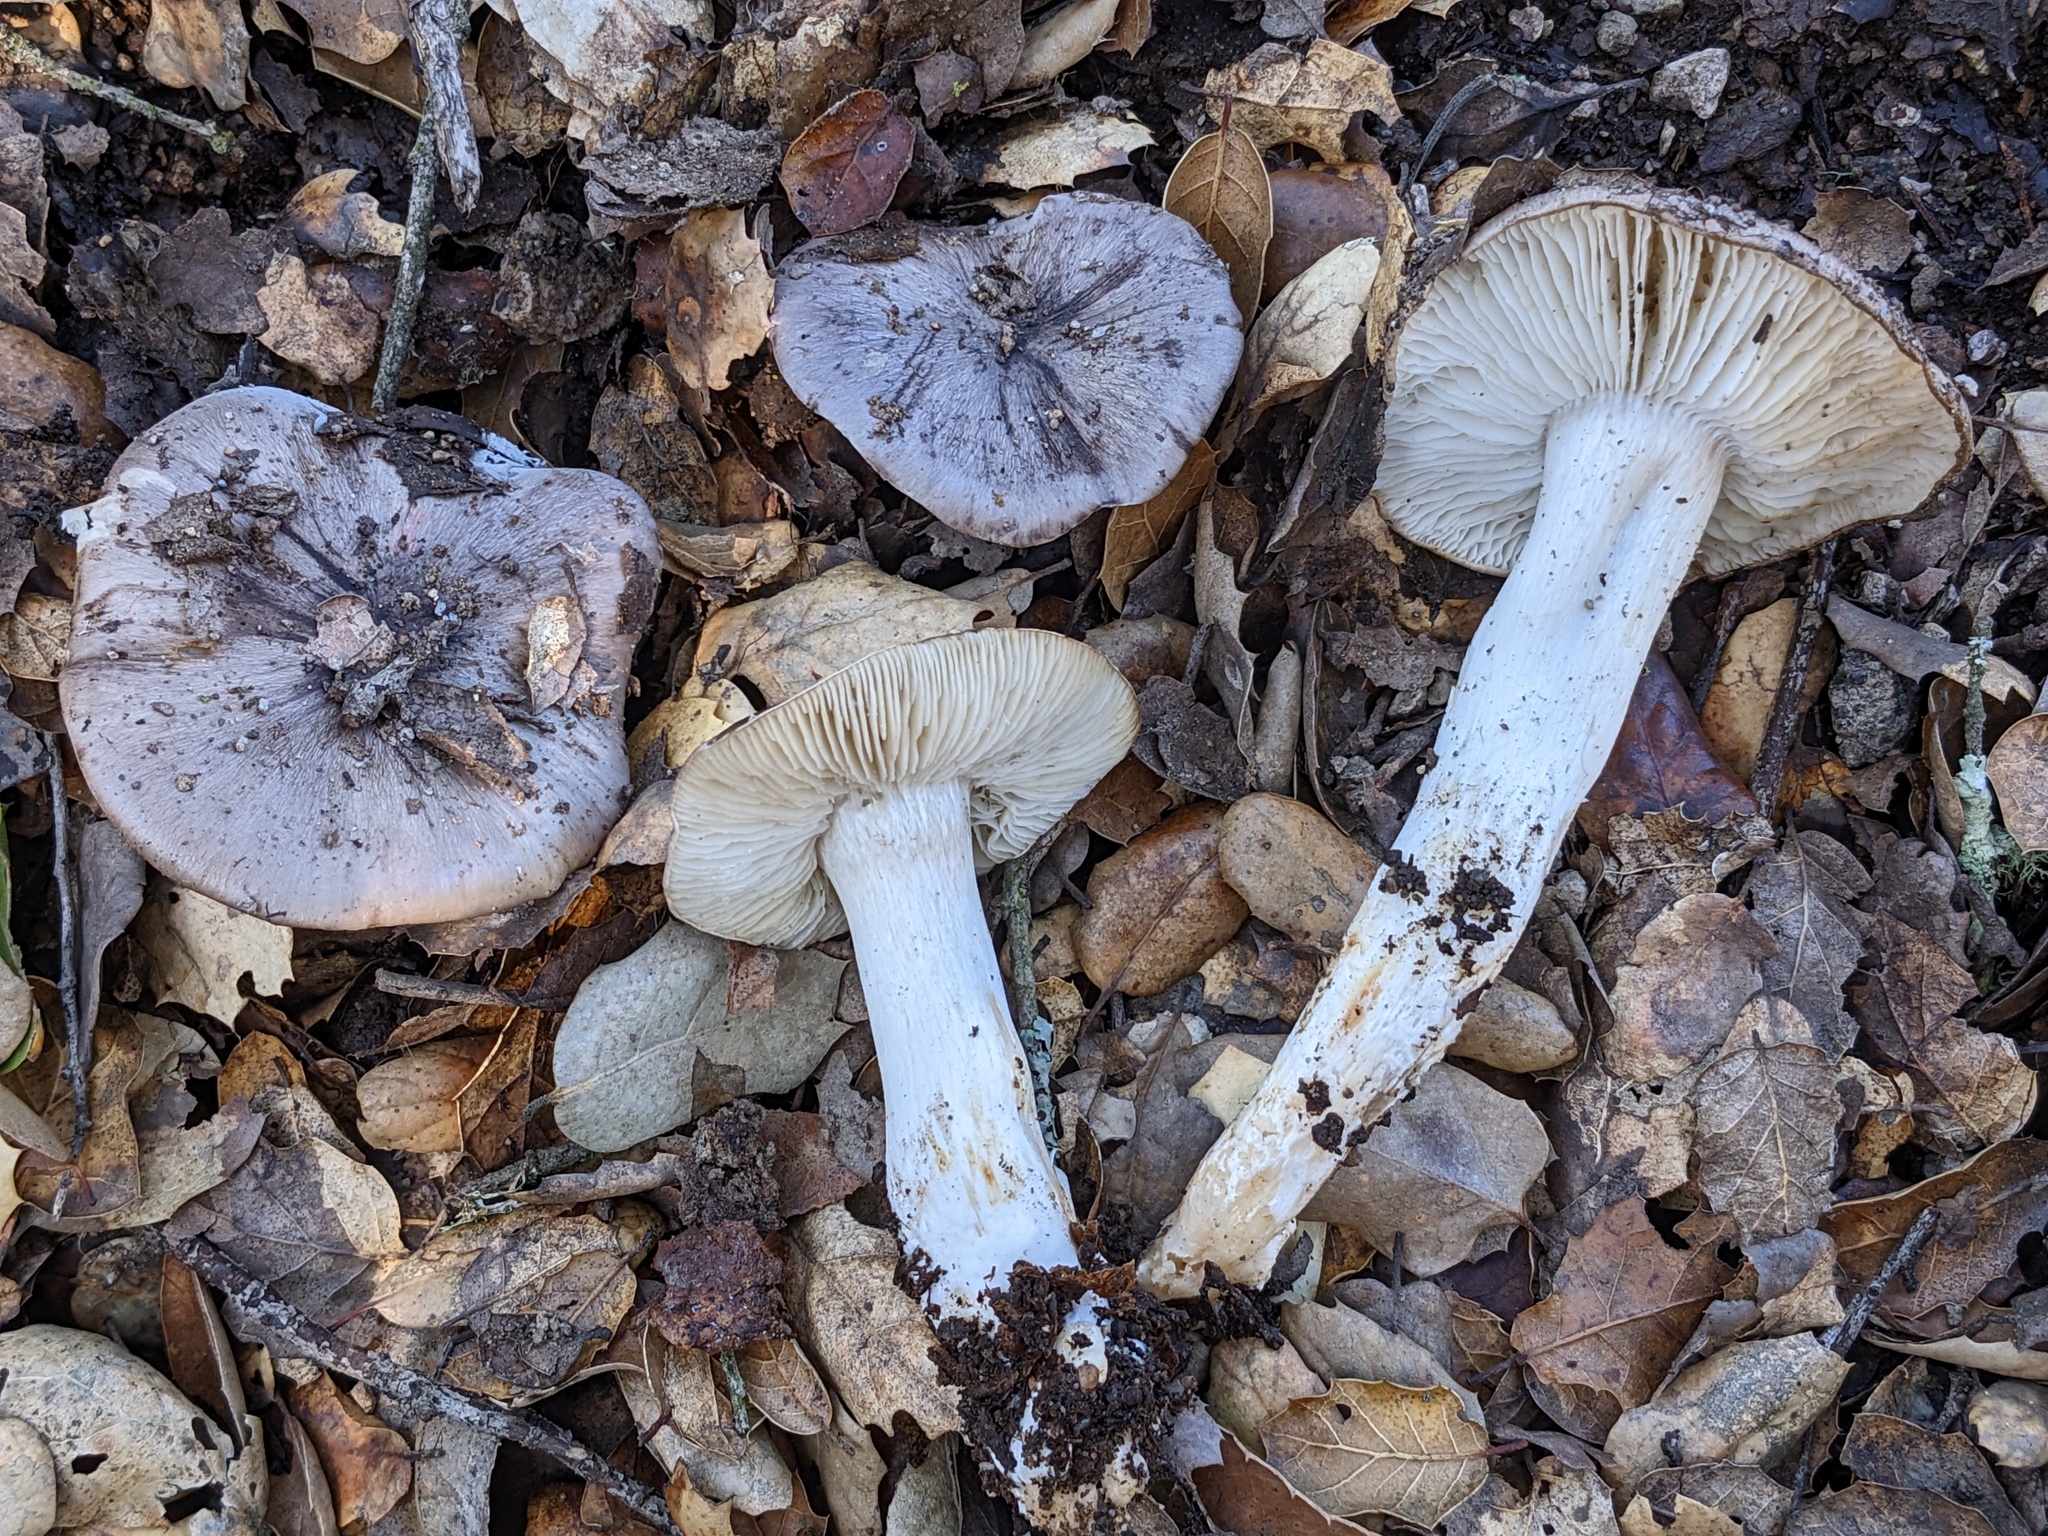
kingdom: Fungi
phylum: Basidiomycota
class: Agaricomycetes
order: Agaricales
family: Tricholomataceae
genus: Tricholoma
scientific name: Tricholoma griseoviolaceum
